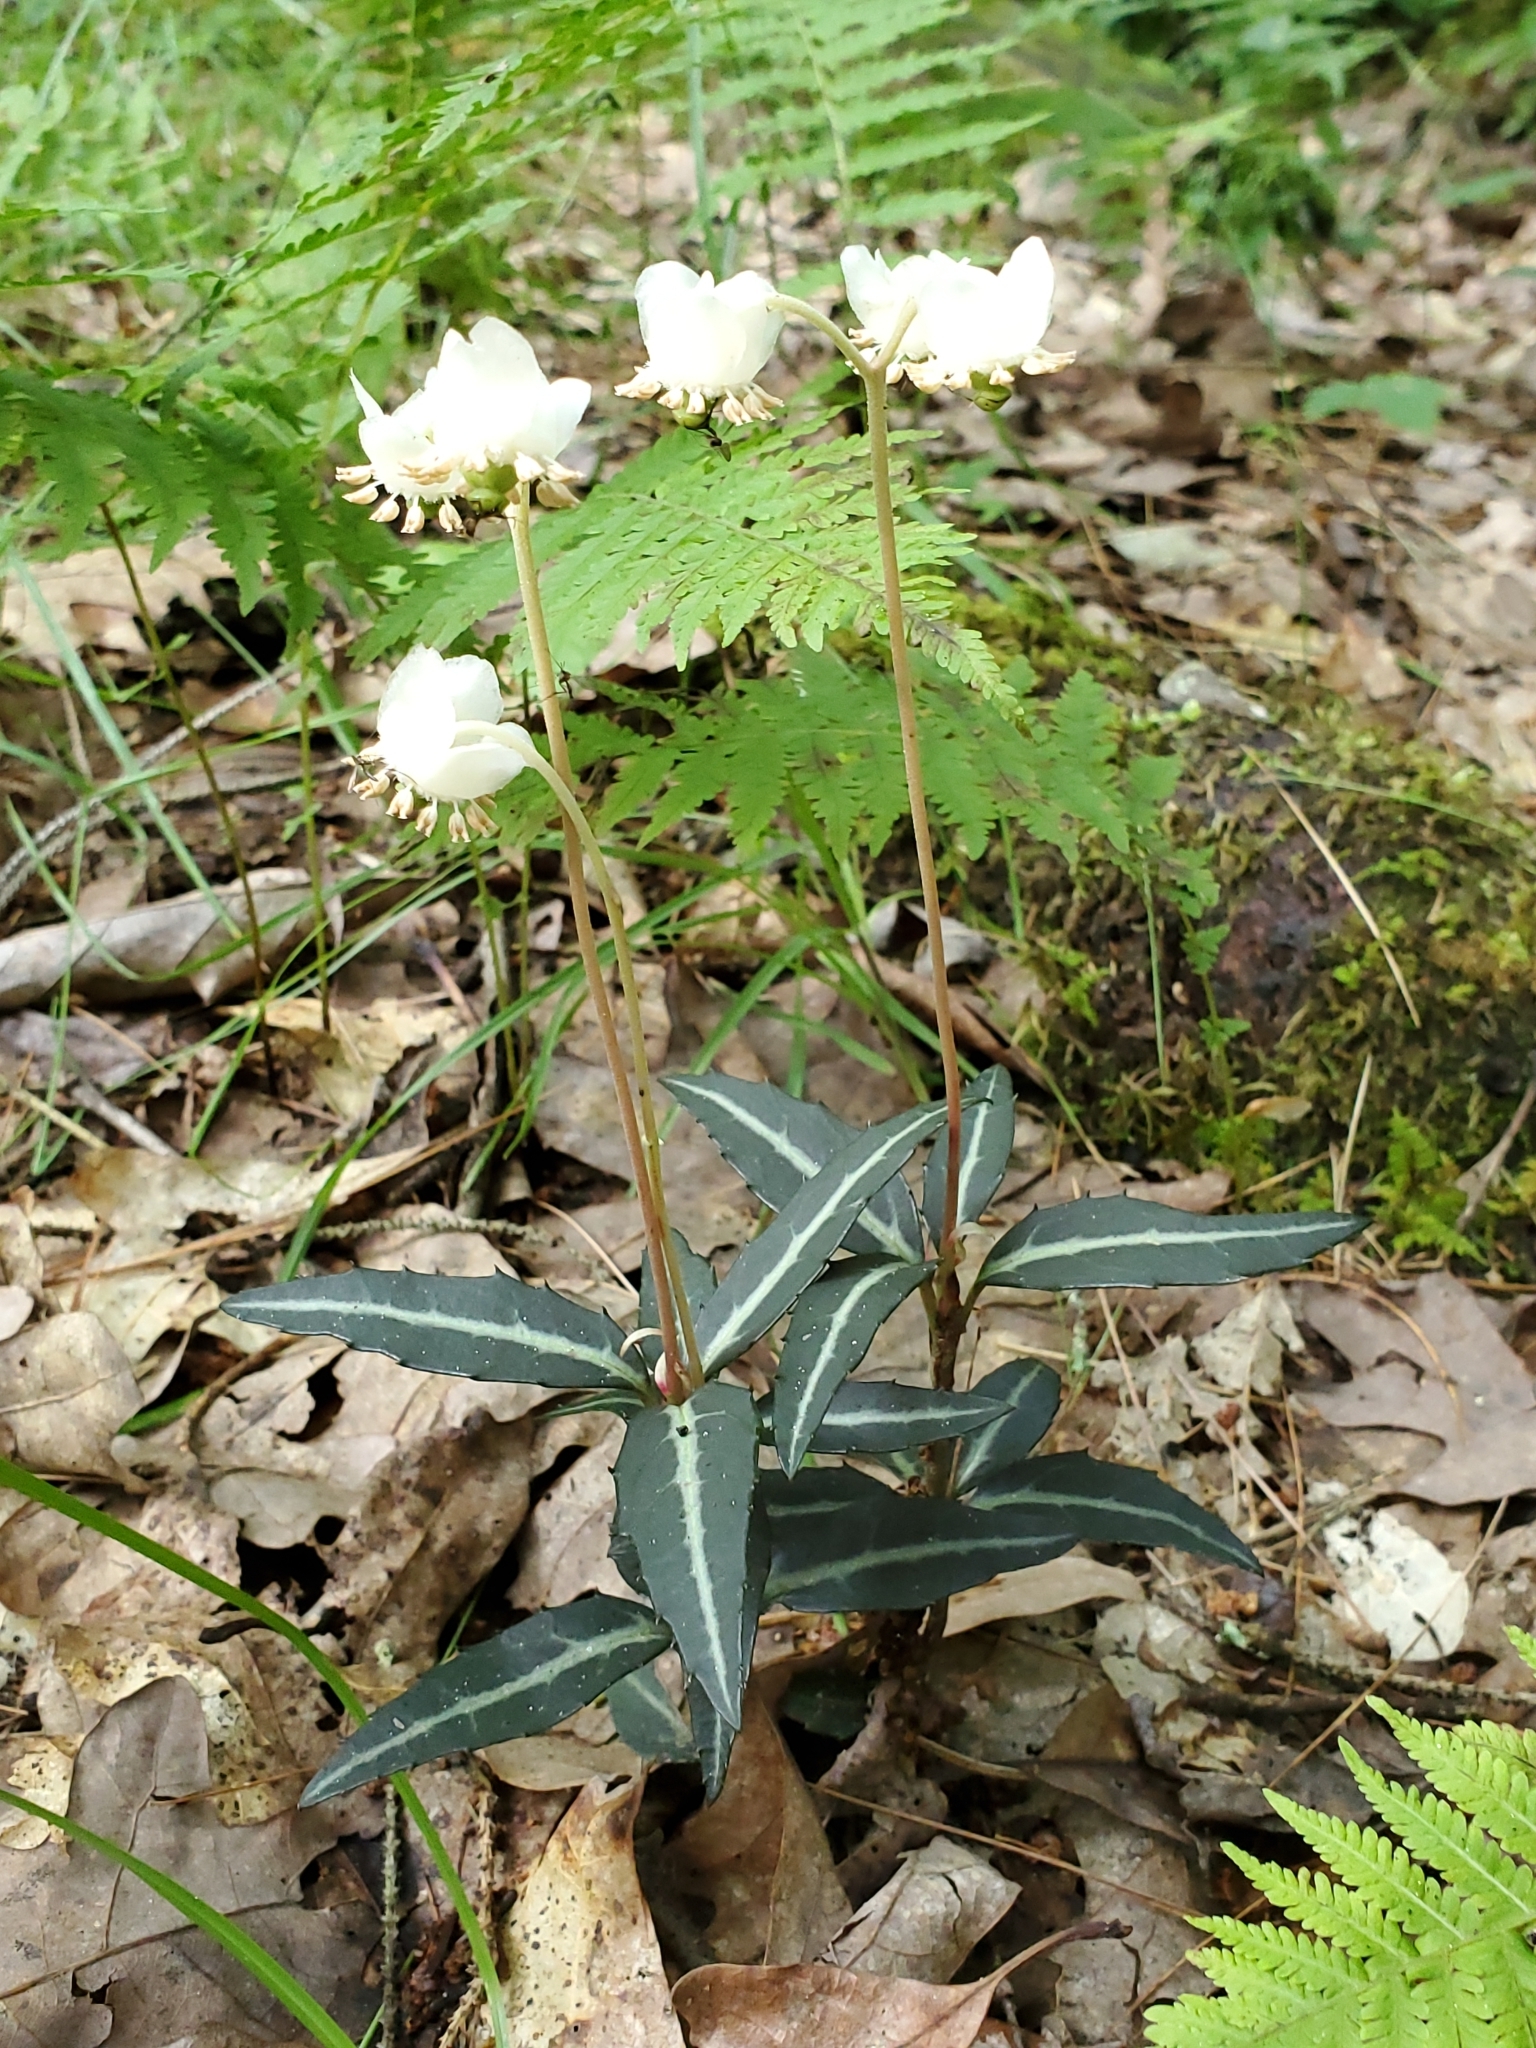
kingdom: Plantae
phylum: Tracheophyta
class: Magnoliopsida
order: Ericales
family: Ericaceae
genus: Chimaphila
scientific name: Chimaphila maculata
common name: Spotted pipsissewa
